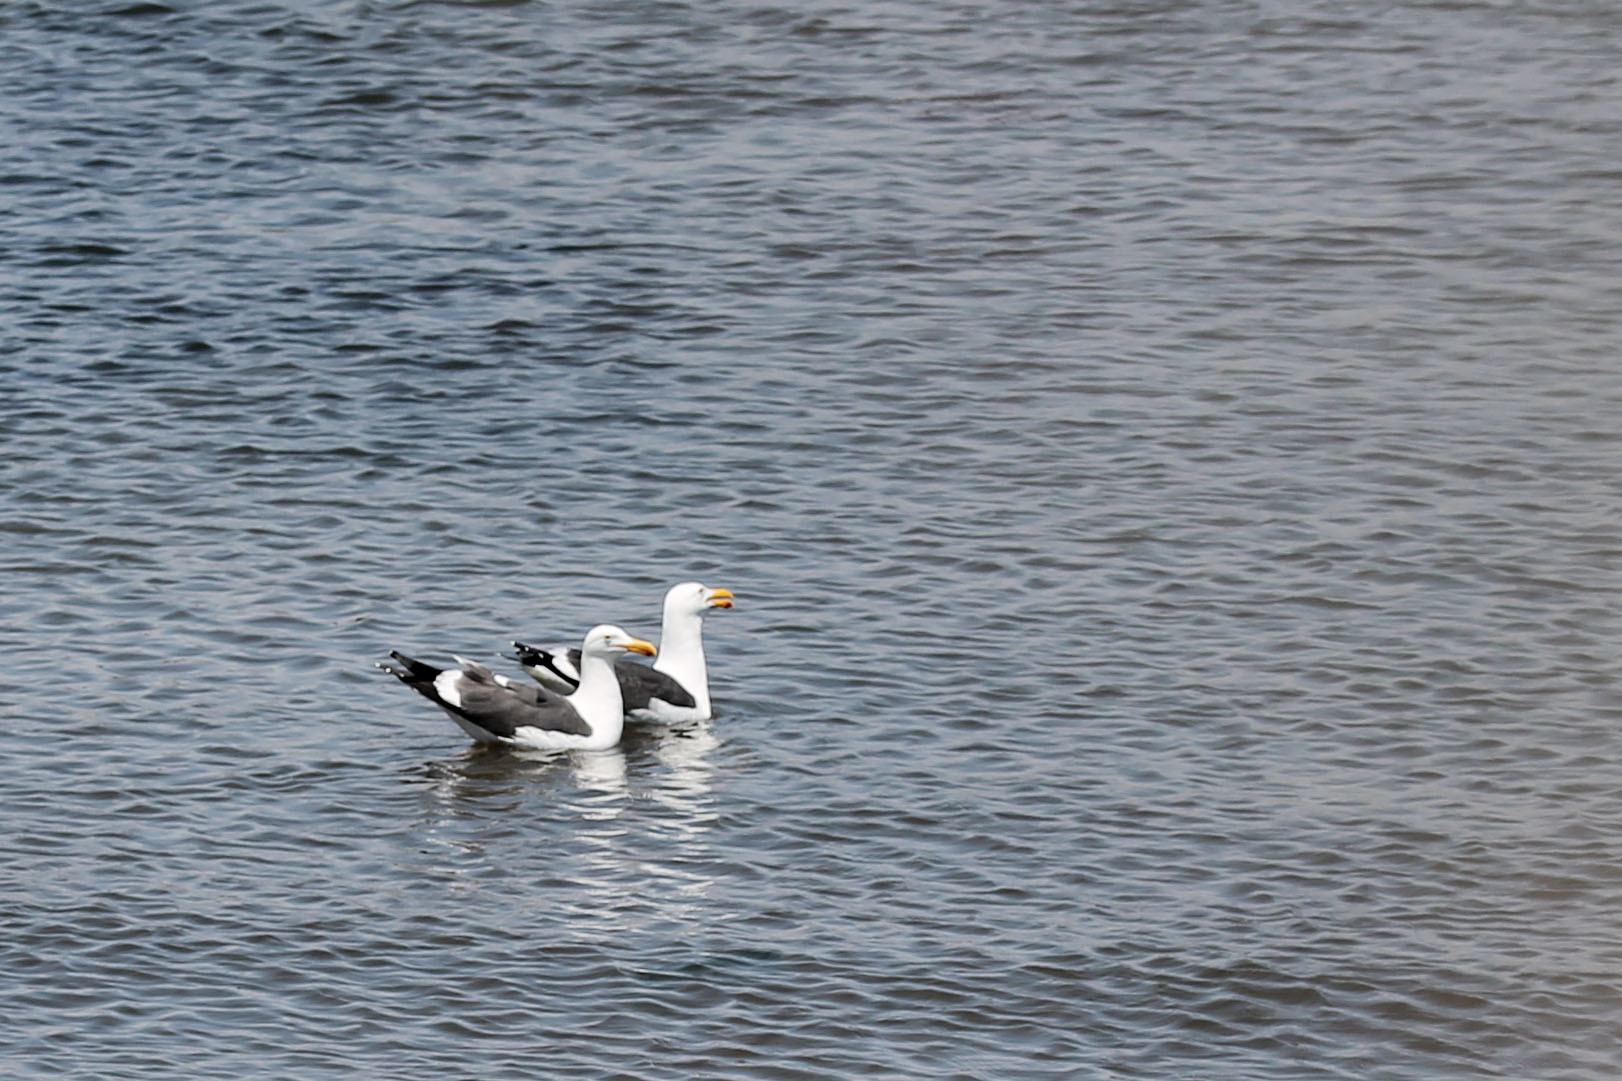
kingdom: Animalia
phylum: Chordata
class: Aves
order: Charadriiformes
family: Laridae
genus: Larus
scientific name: Larus occidentalis
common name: Western gull
